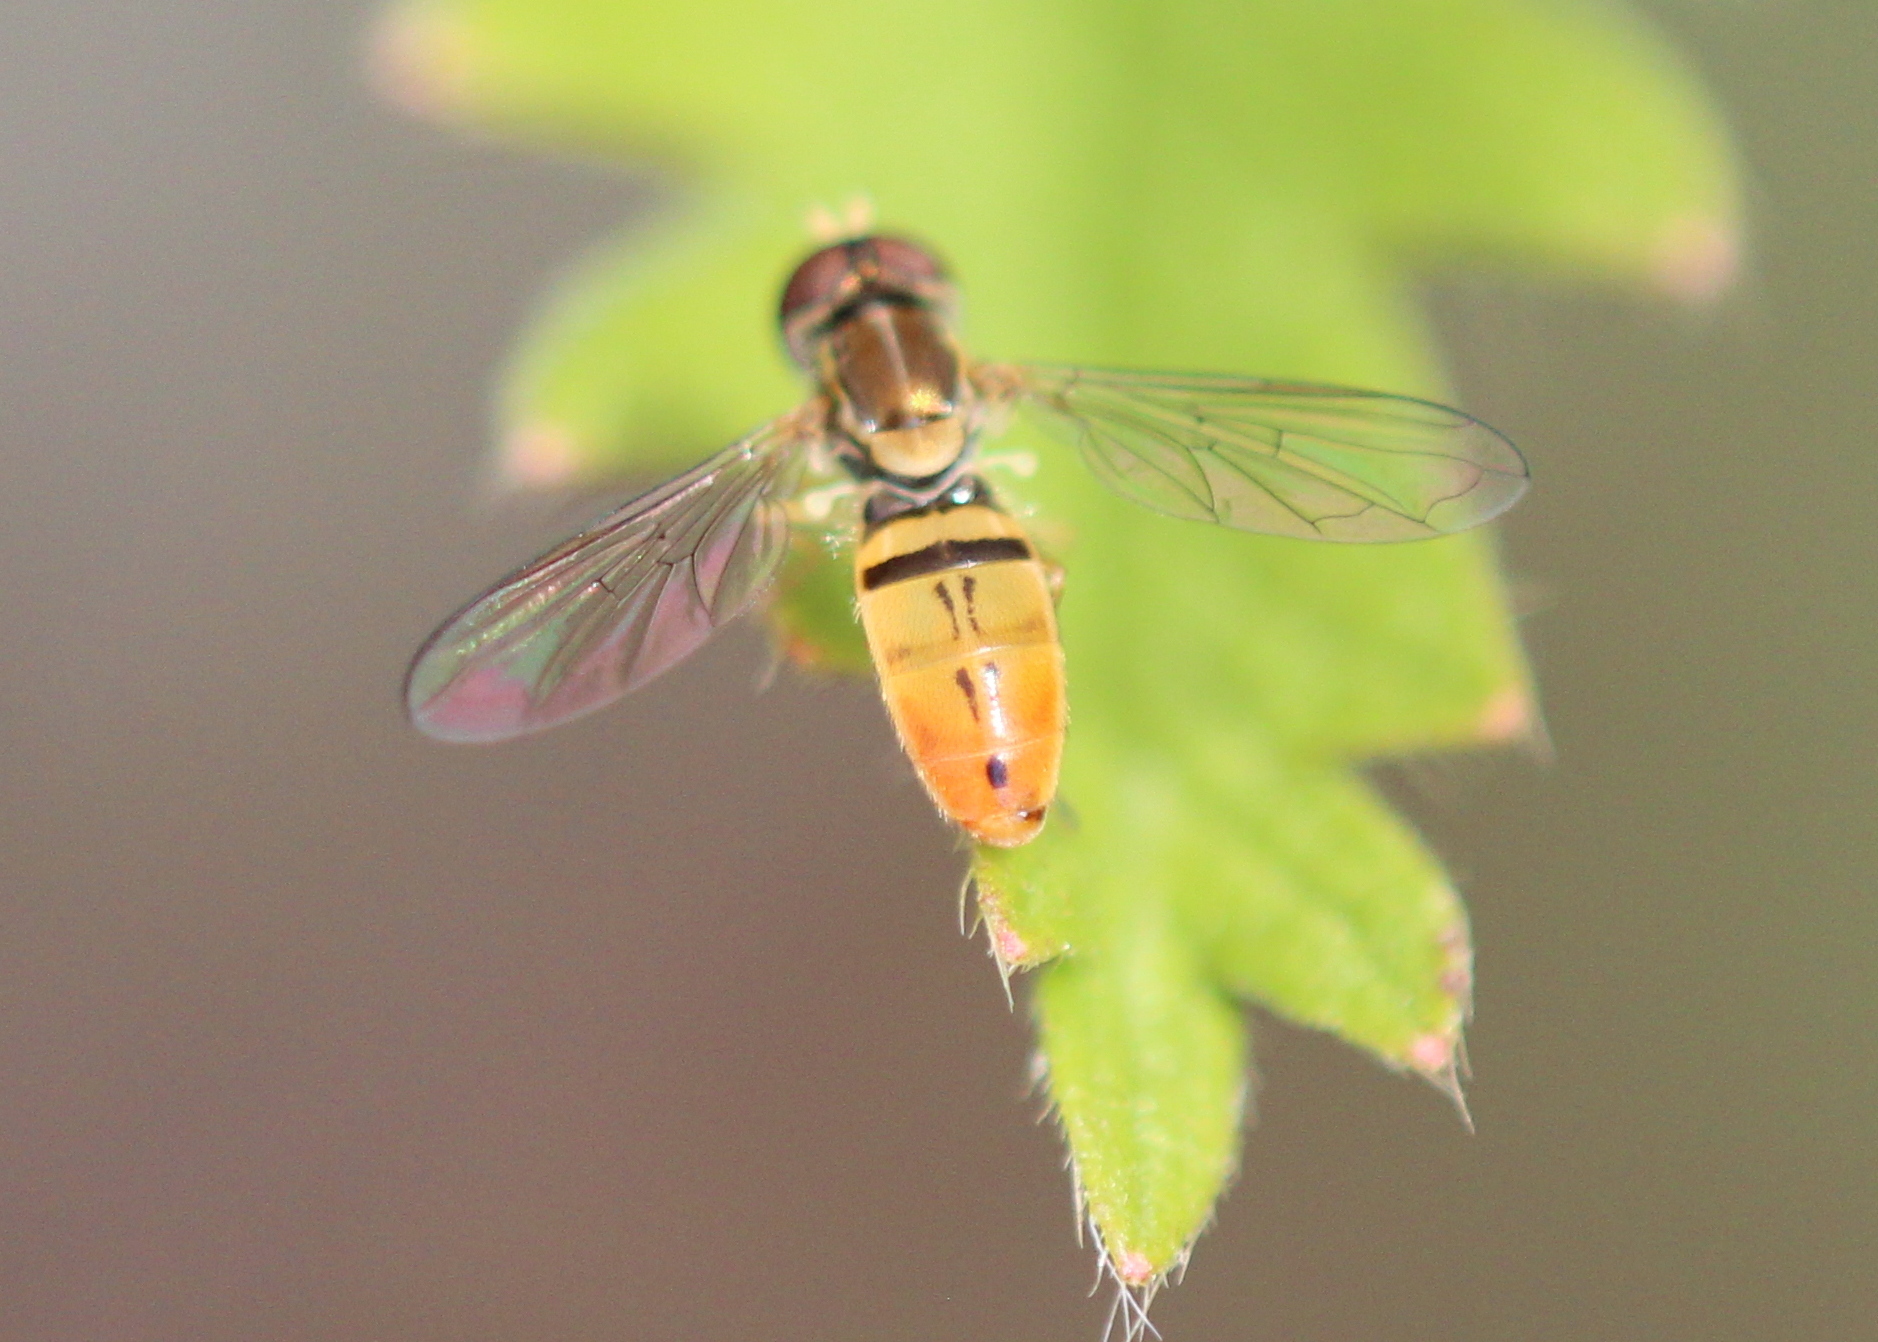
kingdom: Animalia
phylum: Arthropoda
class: Insecta
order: Diptera
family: Syrphidae
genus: Toxomerus
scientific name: Toxomerus marginatus
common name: Syrphid fly
